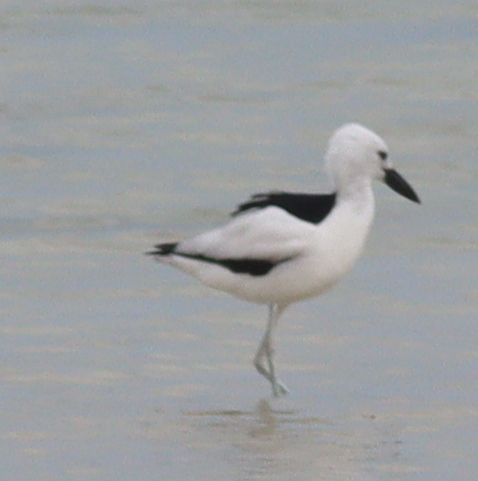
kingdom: Animalia
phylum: Chordata
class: Aves
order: Charadriiformes
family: Dromadidae
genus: Dromas
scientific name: Dromas ardeola
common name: Crab-plover
